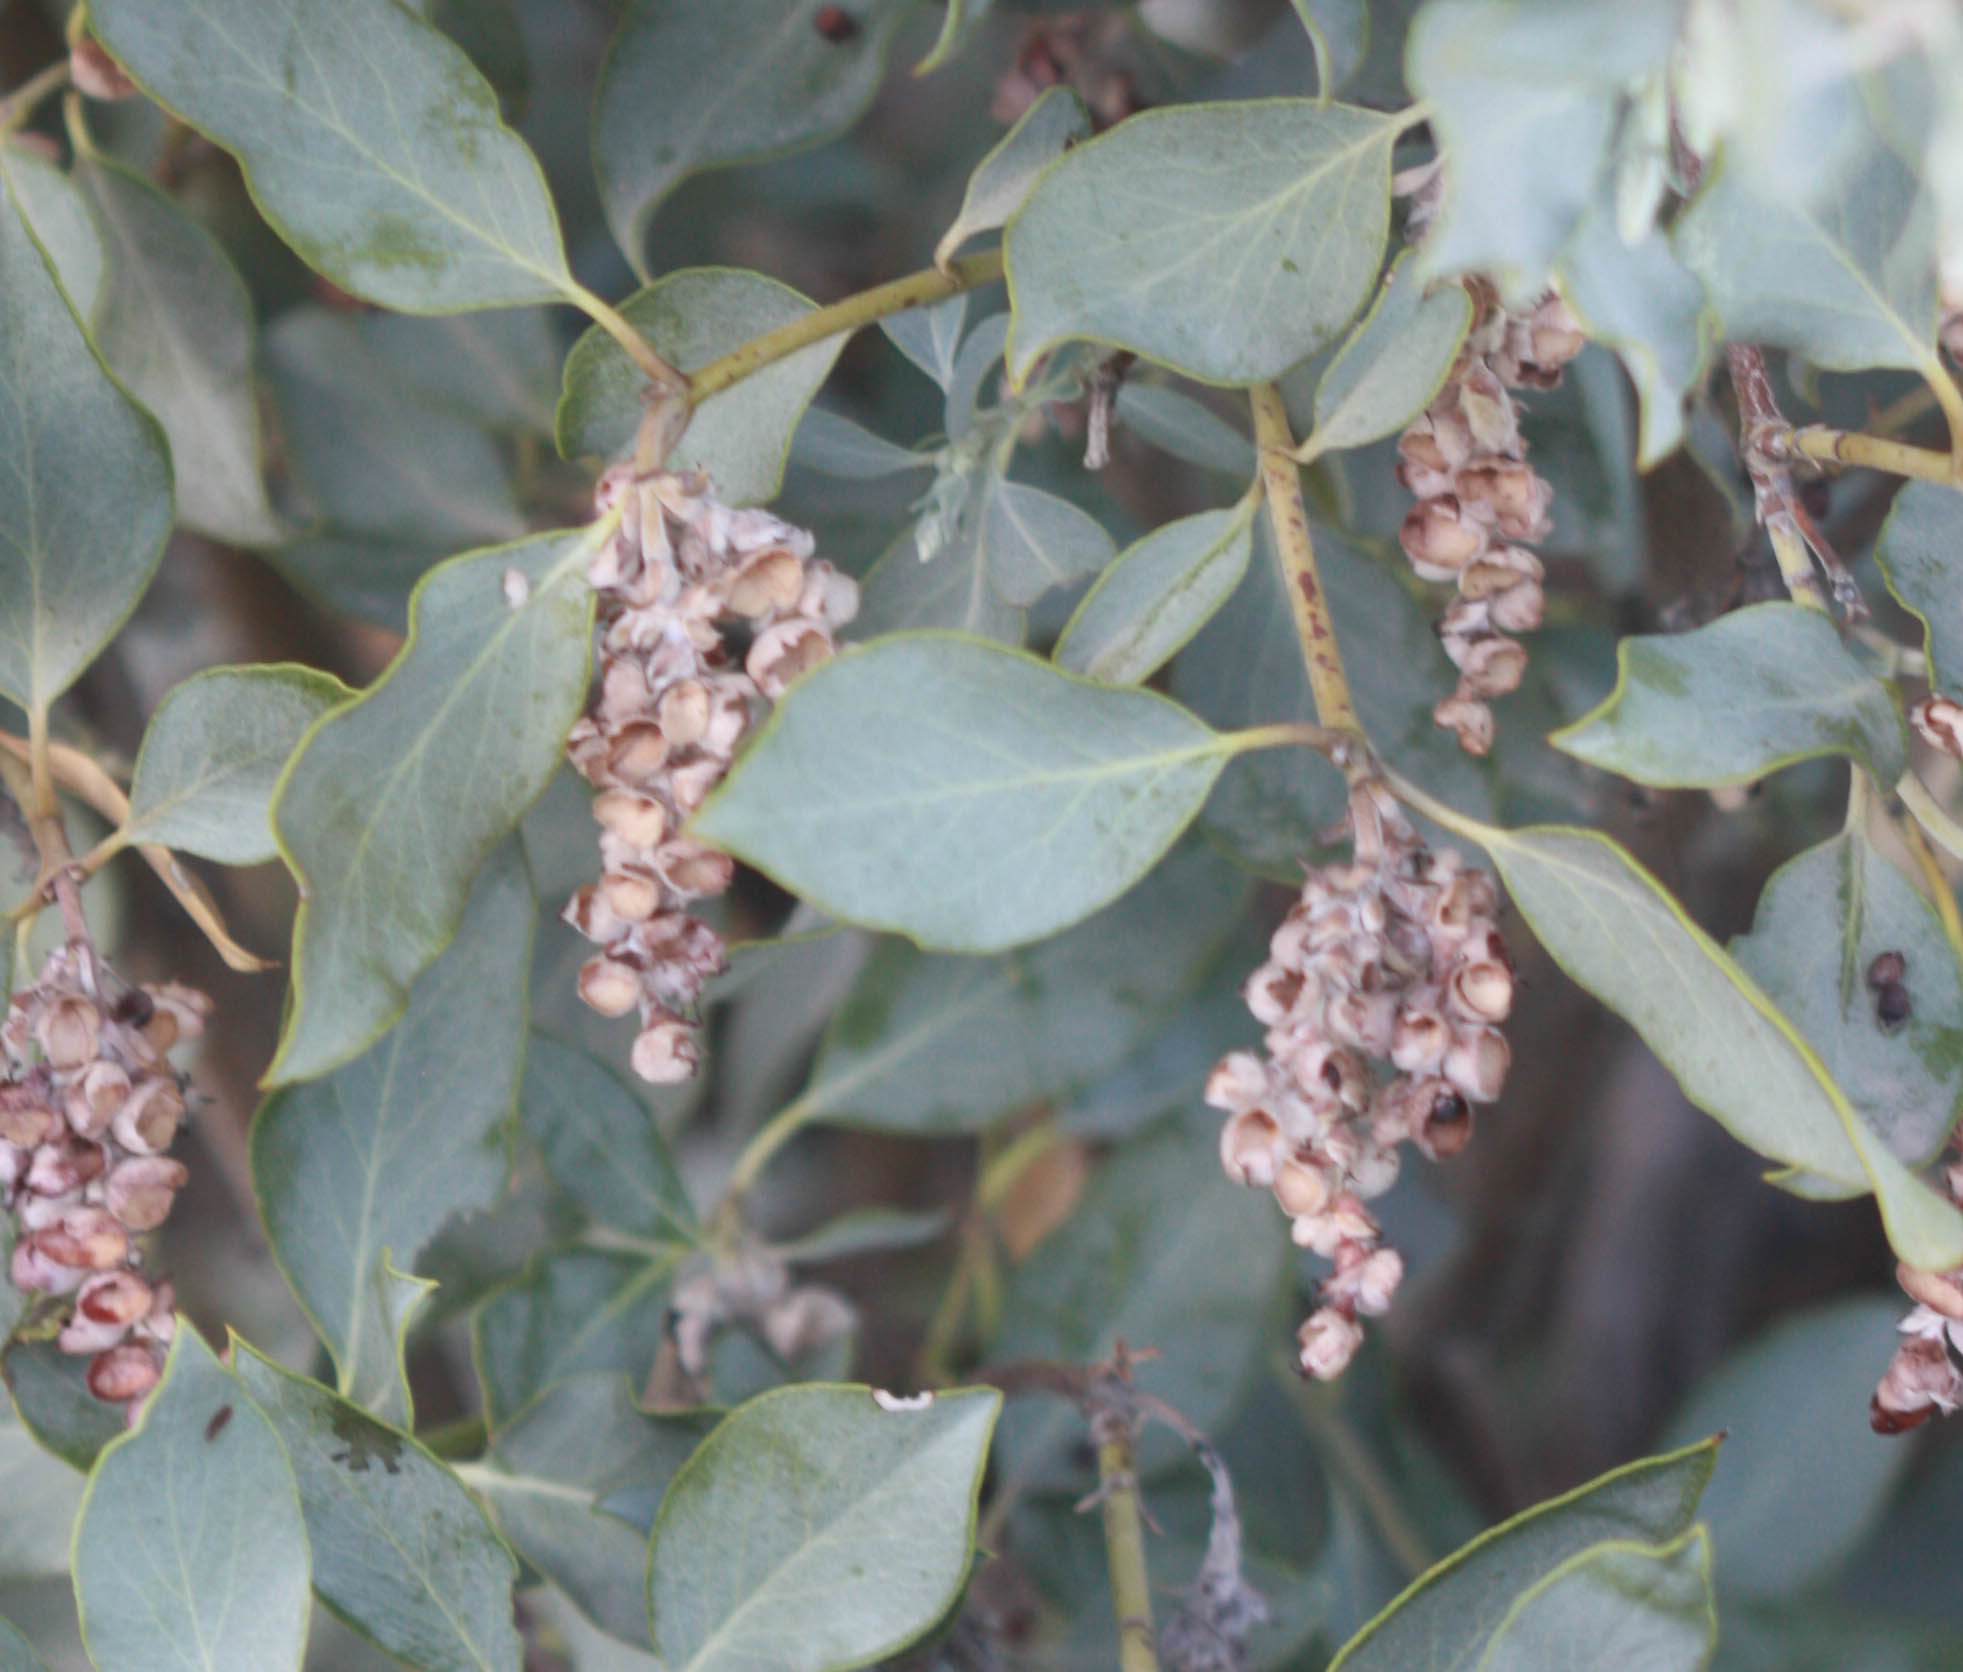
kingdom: Plantae
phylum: Tracheophyta
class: Magnoliopsida
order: Garryales
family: Garryaceae
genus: Garrya
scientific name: Garrya flavescens
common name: Ashy silk-tassel
